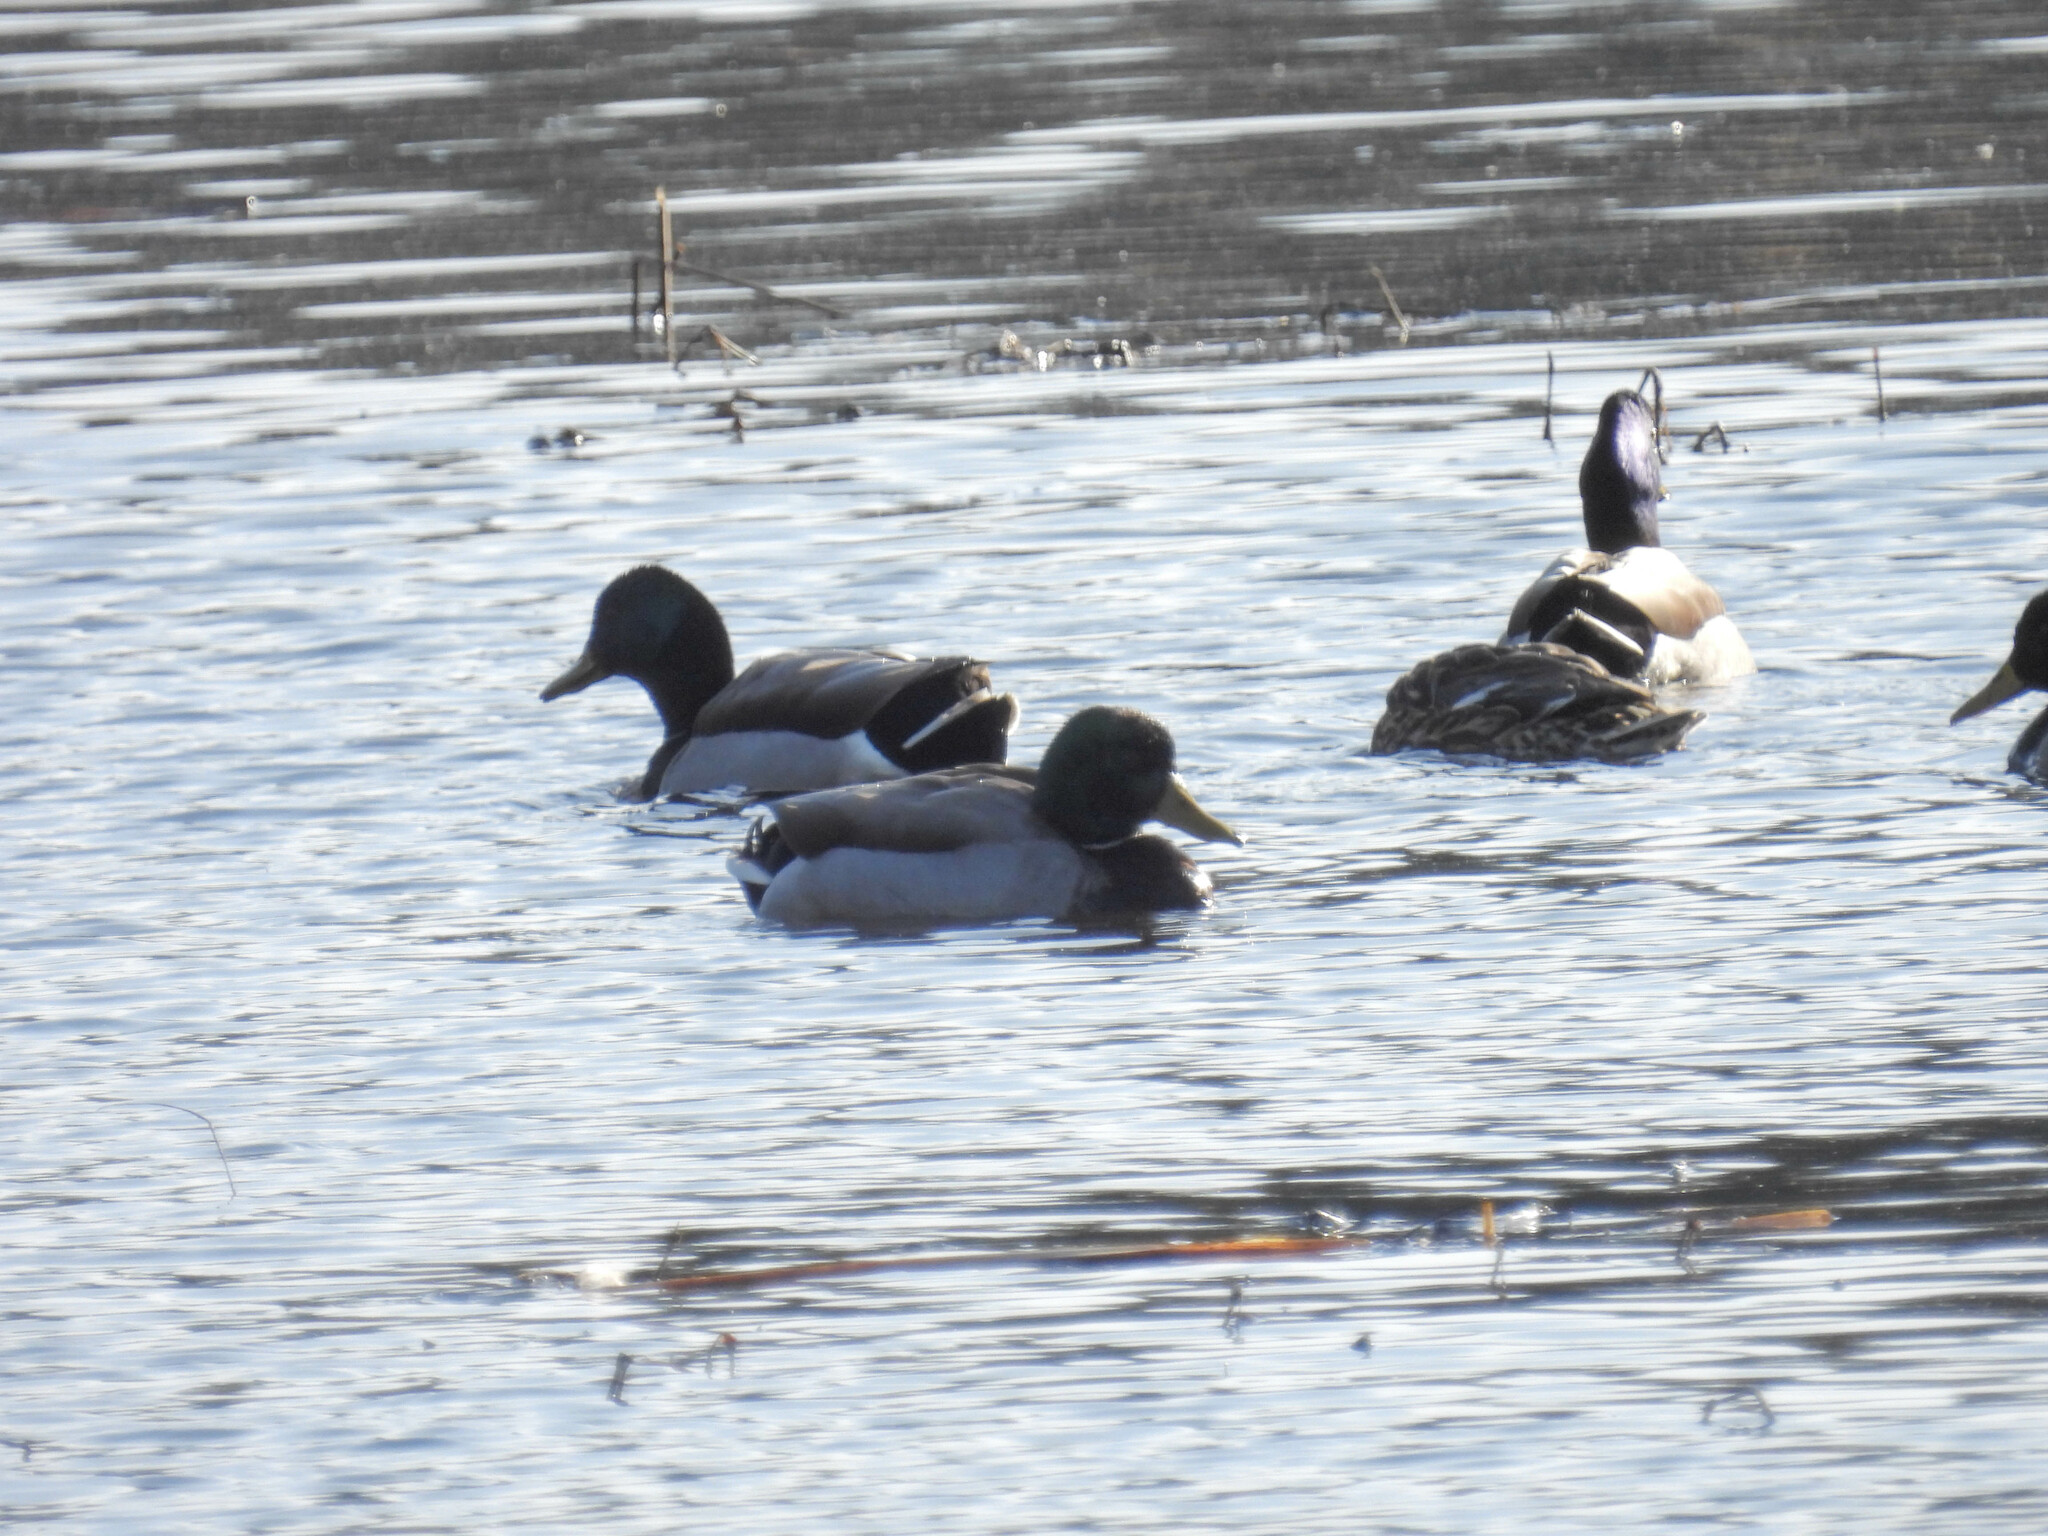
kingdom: Animalia
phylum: Chordata
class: Aves
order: Anseriformes
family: Anatidae
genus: Anas
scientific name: Anas platyrhynchos
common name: Mallard
